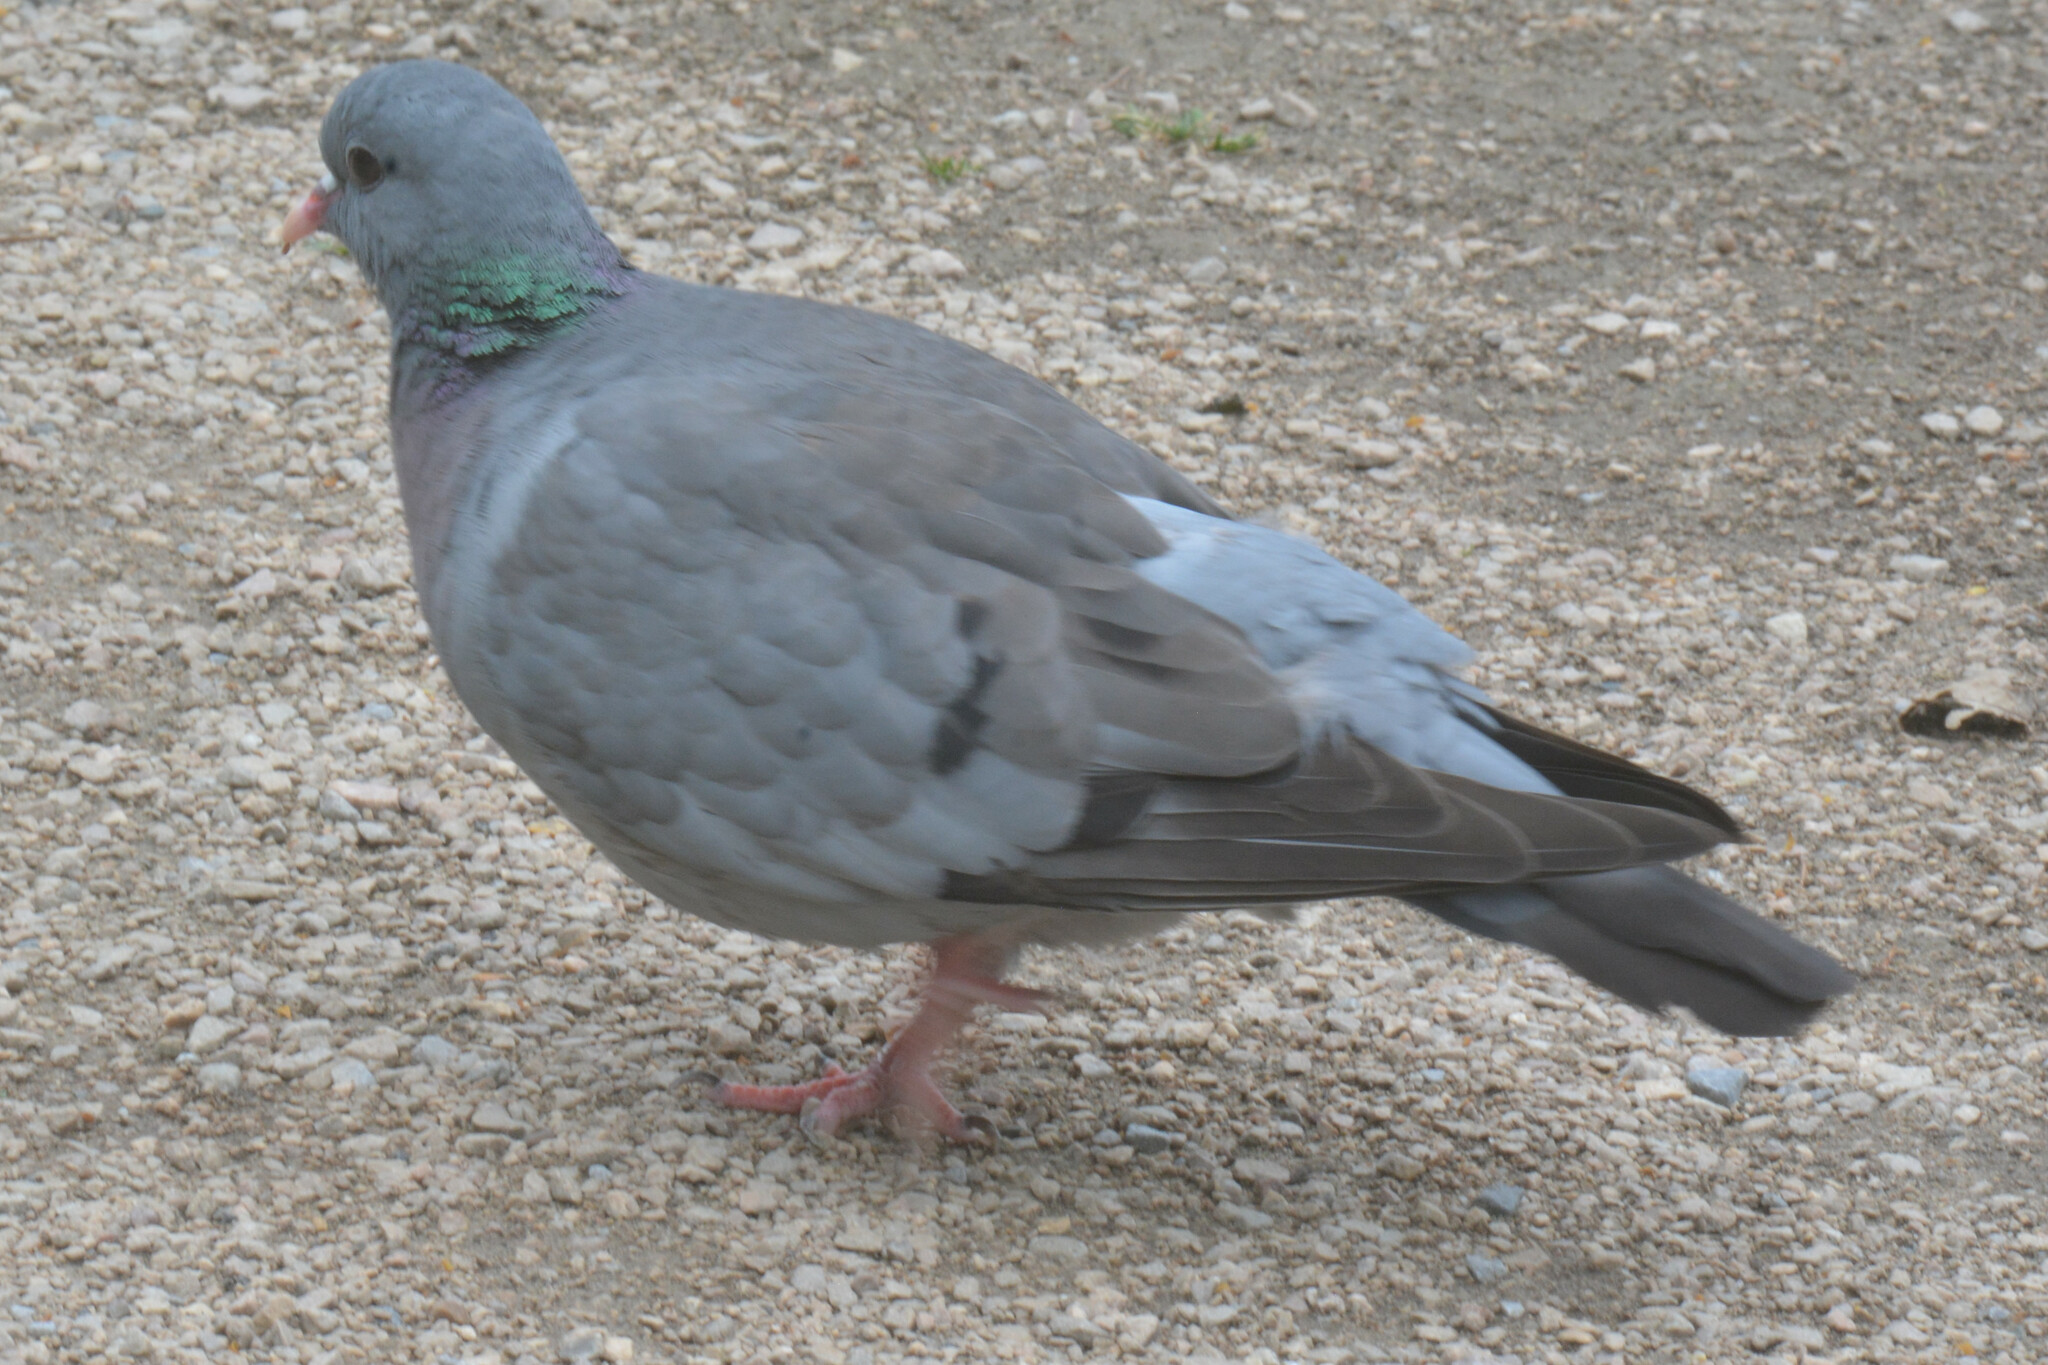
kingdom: Animalia
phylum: Chordata
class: Aves
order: Columbiformes
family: Columbidae
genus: Columba
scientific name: Columba oenas
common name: Stock dove
